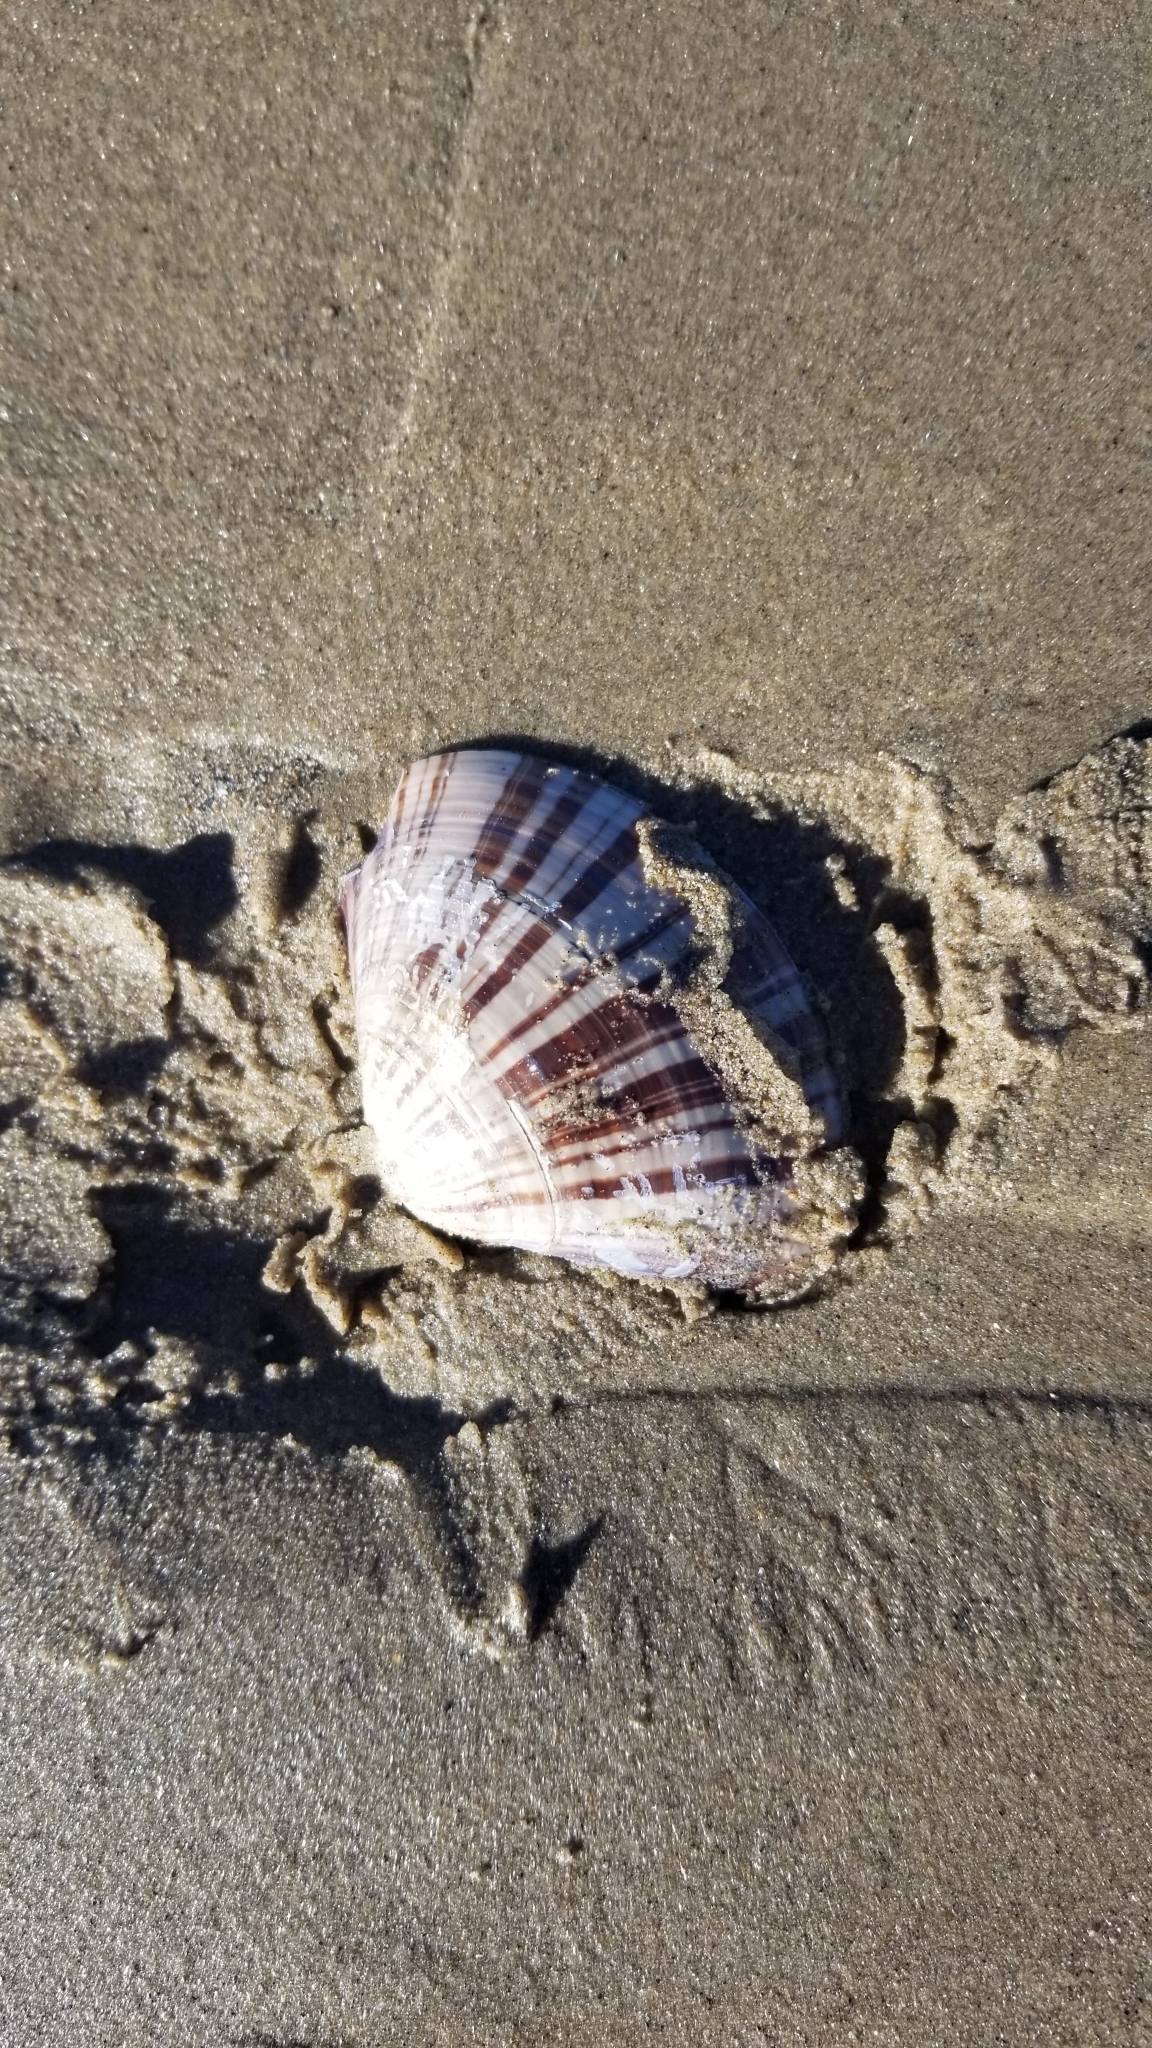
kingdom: Animalia
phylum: Mollusca
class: Bivalvia
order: Venerida
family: Veneridae
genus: Tivela
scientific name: Tivela stultorum
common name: Pismo clam
